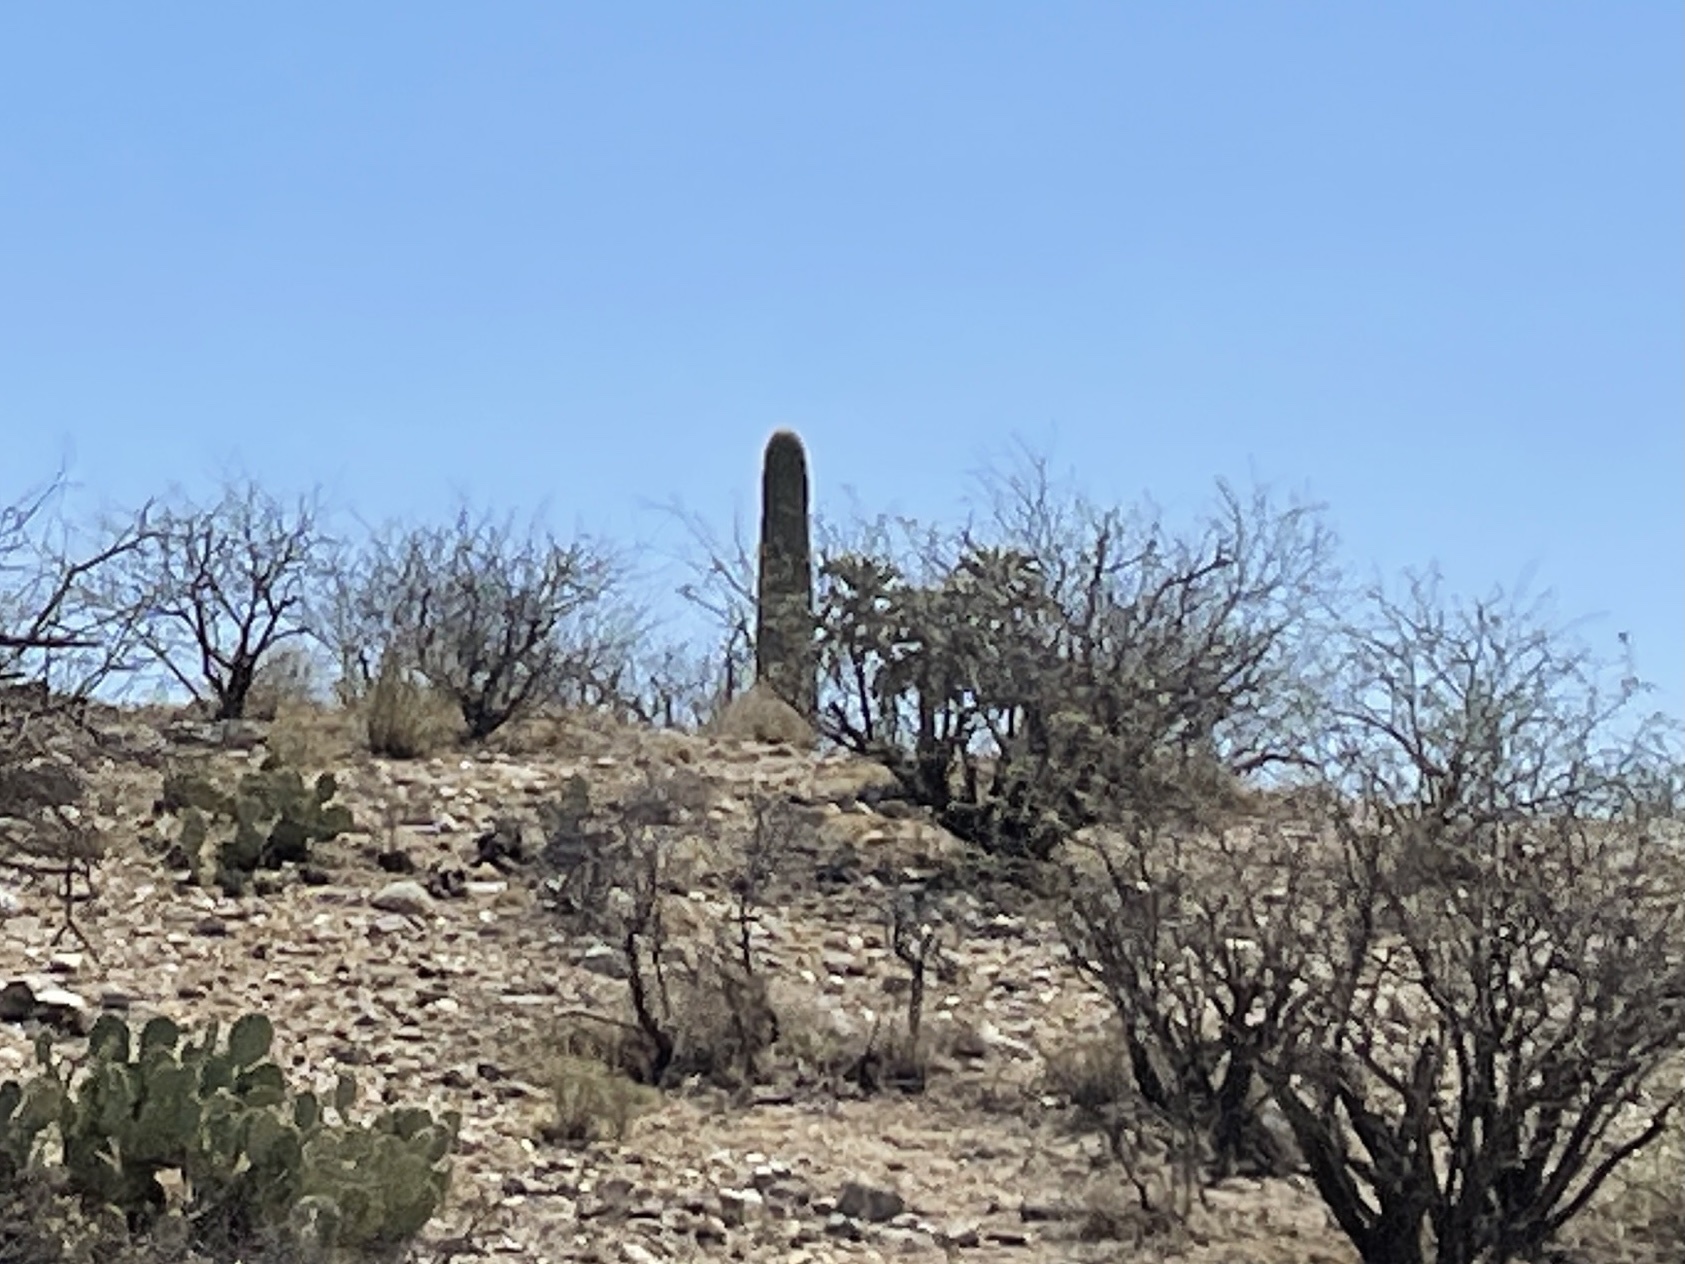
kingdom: Plantae
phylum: Tracheophyta
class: Magnoliopsida
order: Caryophyllales
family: Cactaceae
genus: Carnegiea
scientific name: Carnegiea gigantea
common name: Saguaro
